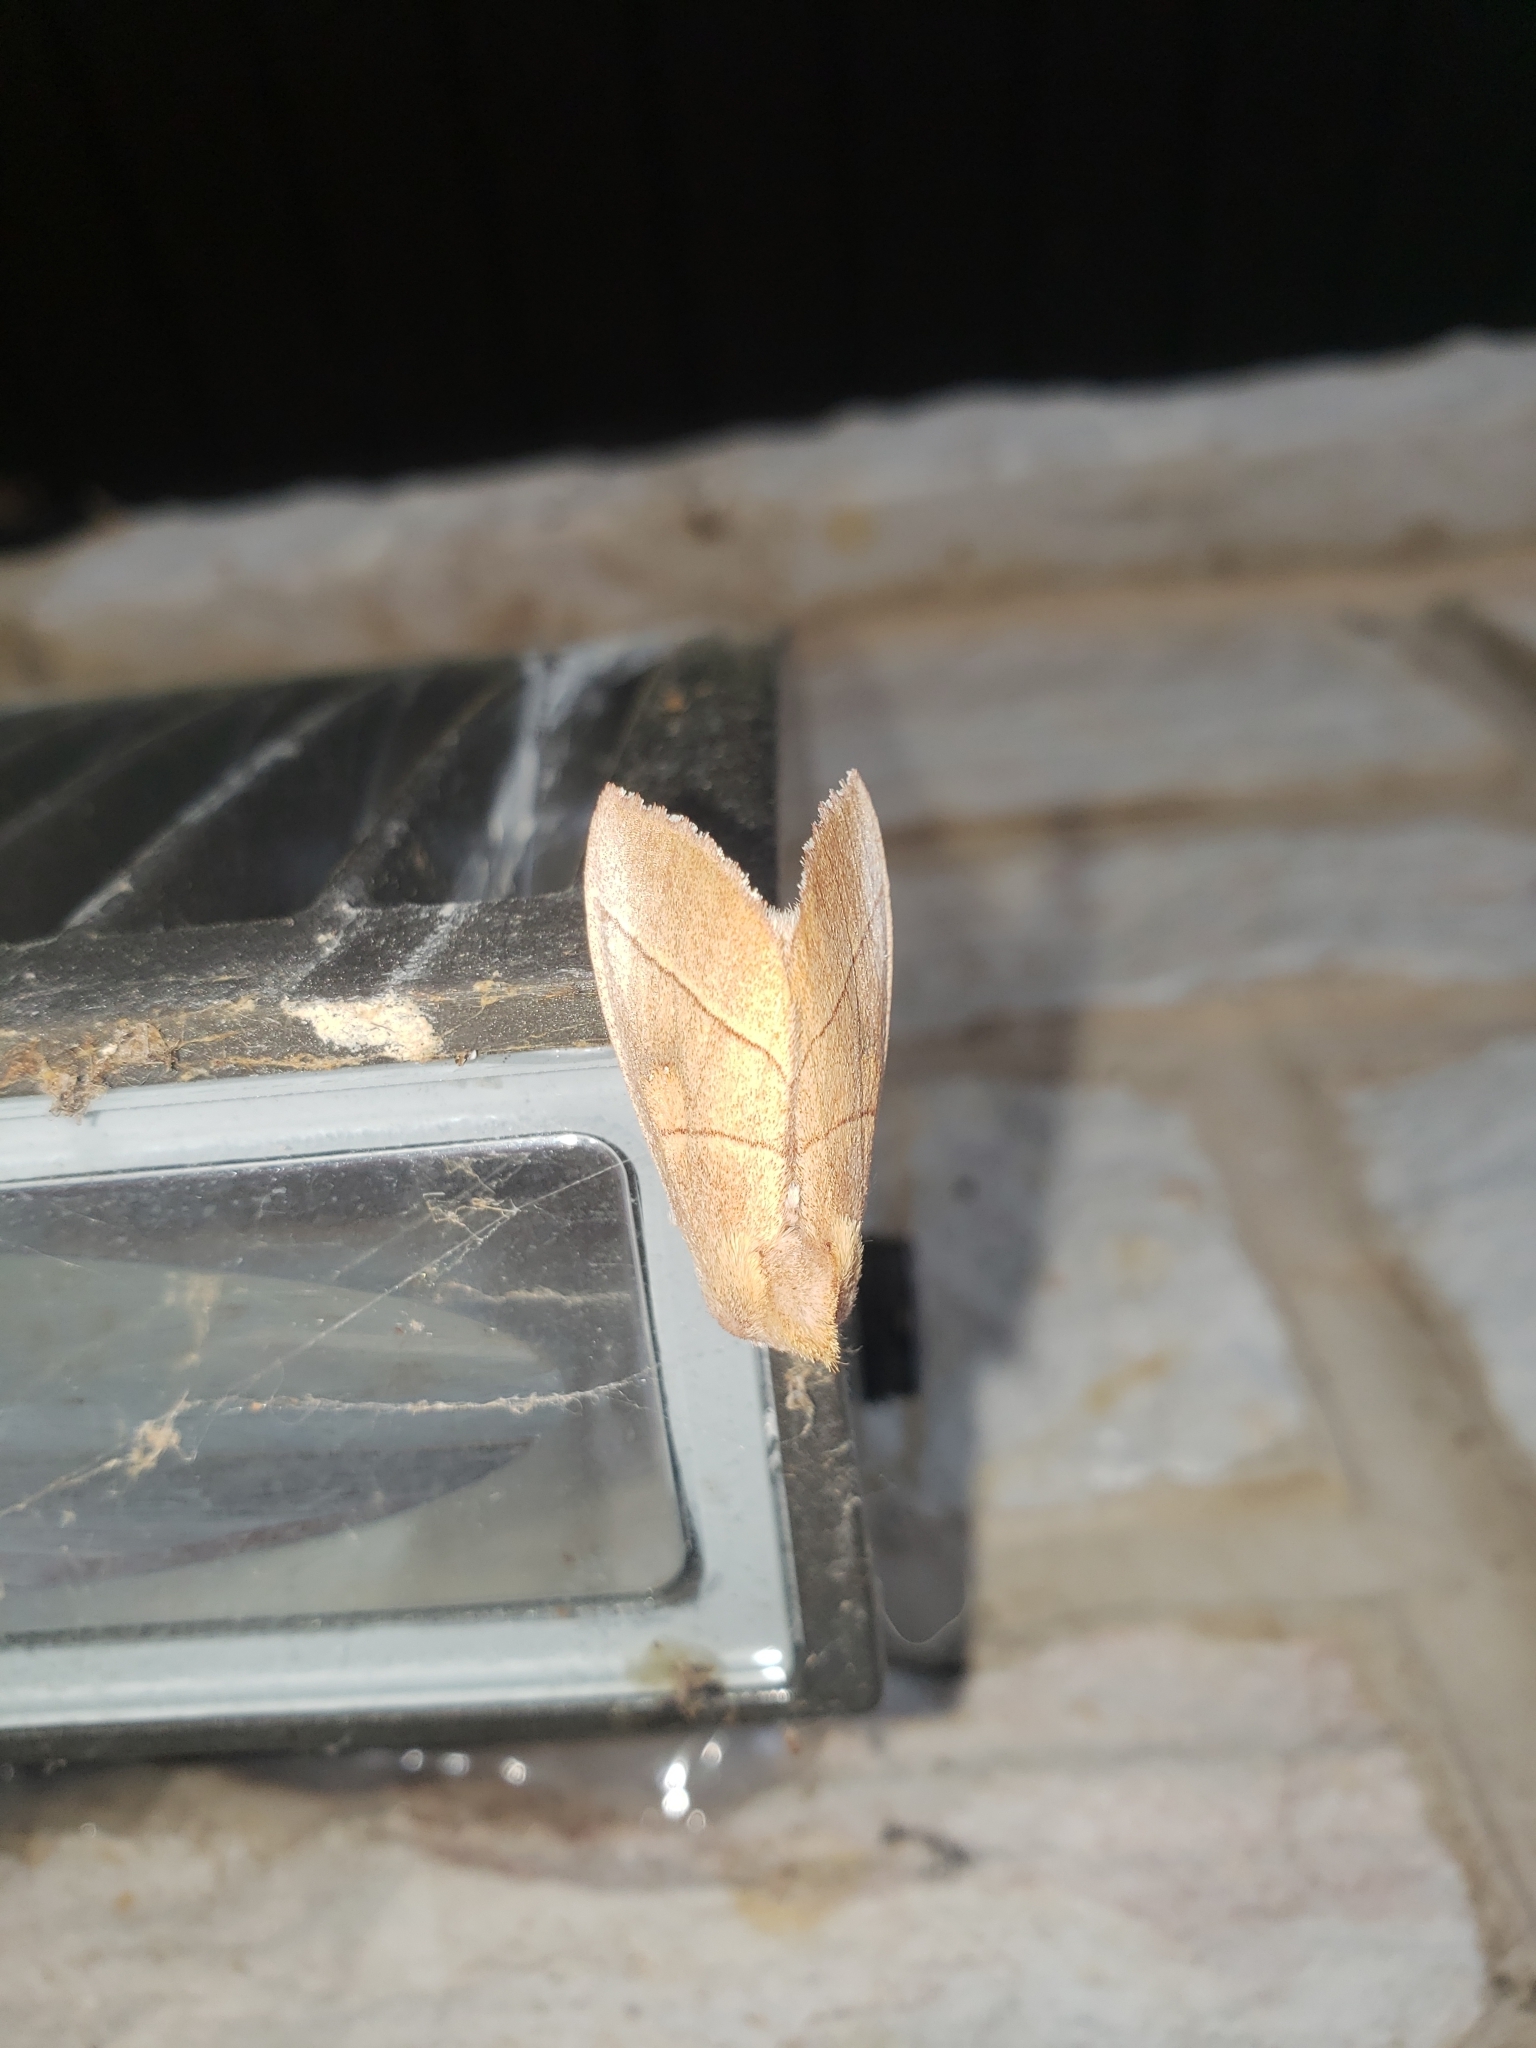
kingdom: Animalia
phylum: Arthropoda
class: Insecta
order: Lepidoptera
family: Notodontidae
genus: Nadata
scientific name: Nadata gibbosa
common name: White-dotted prominent
